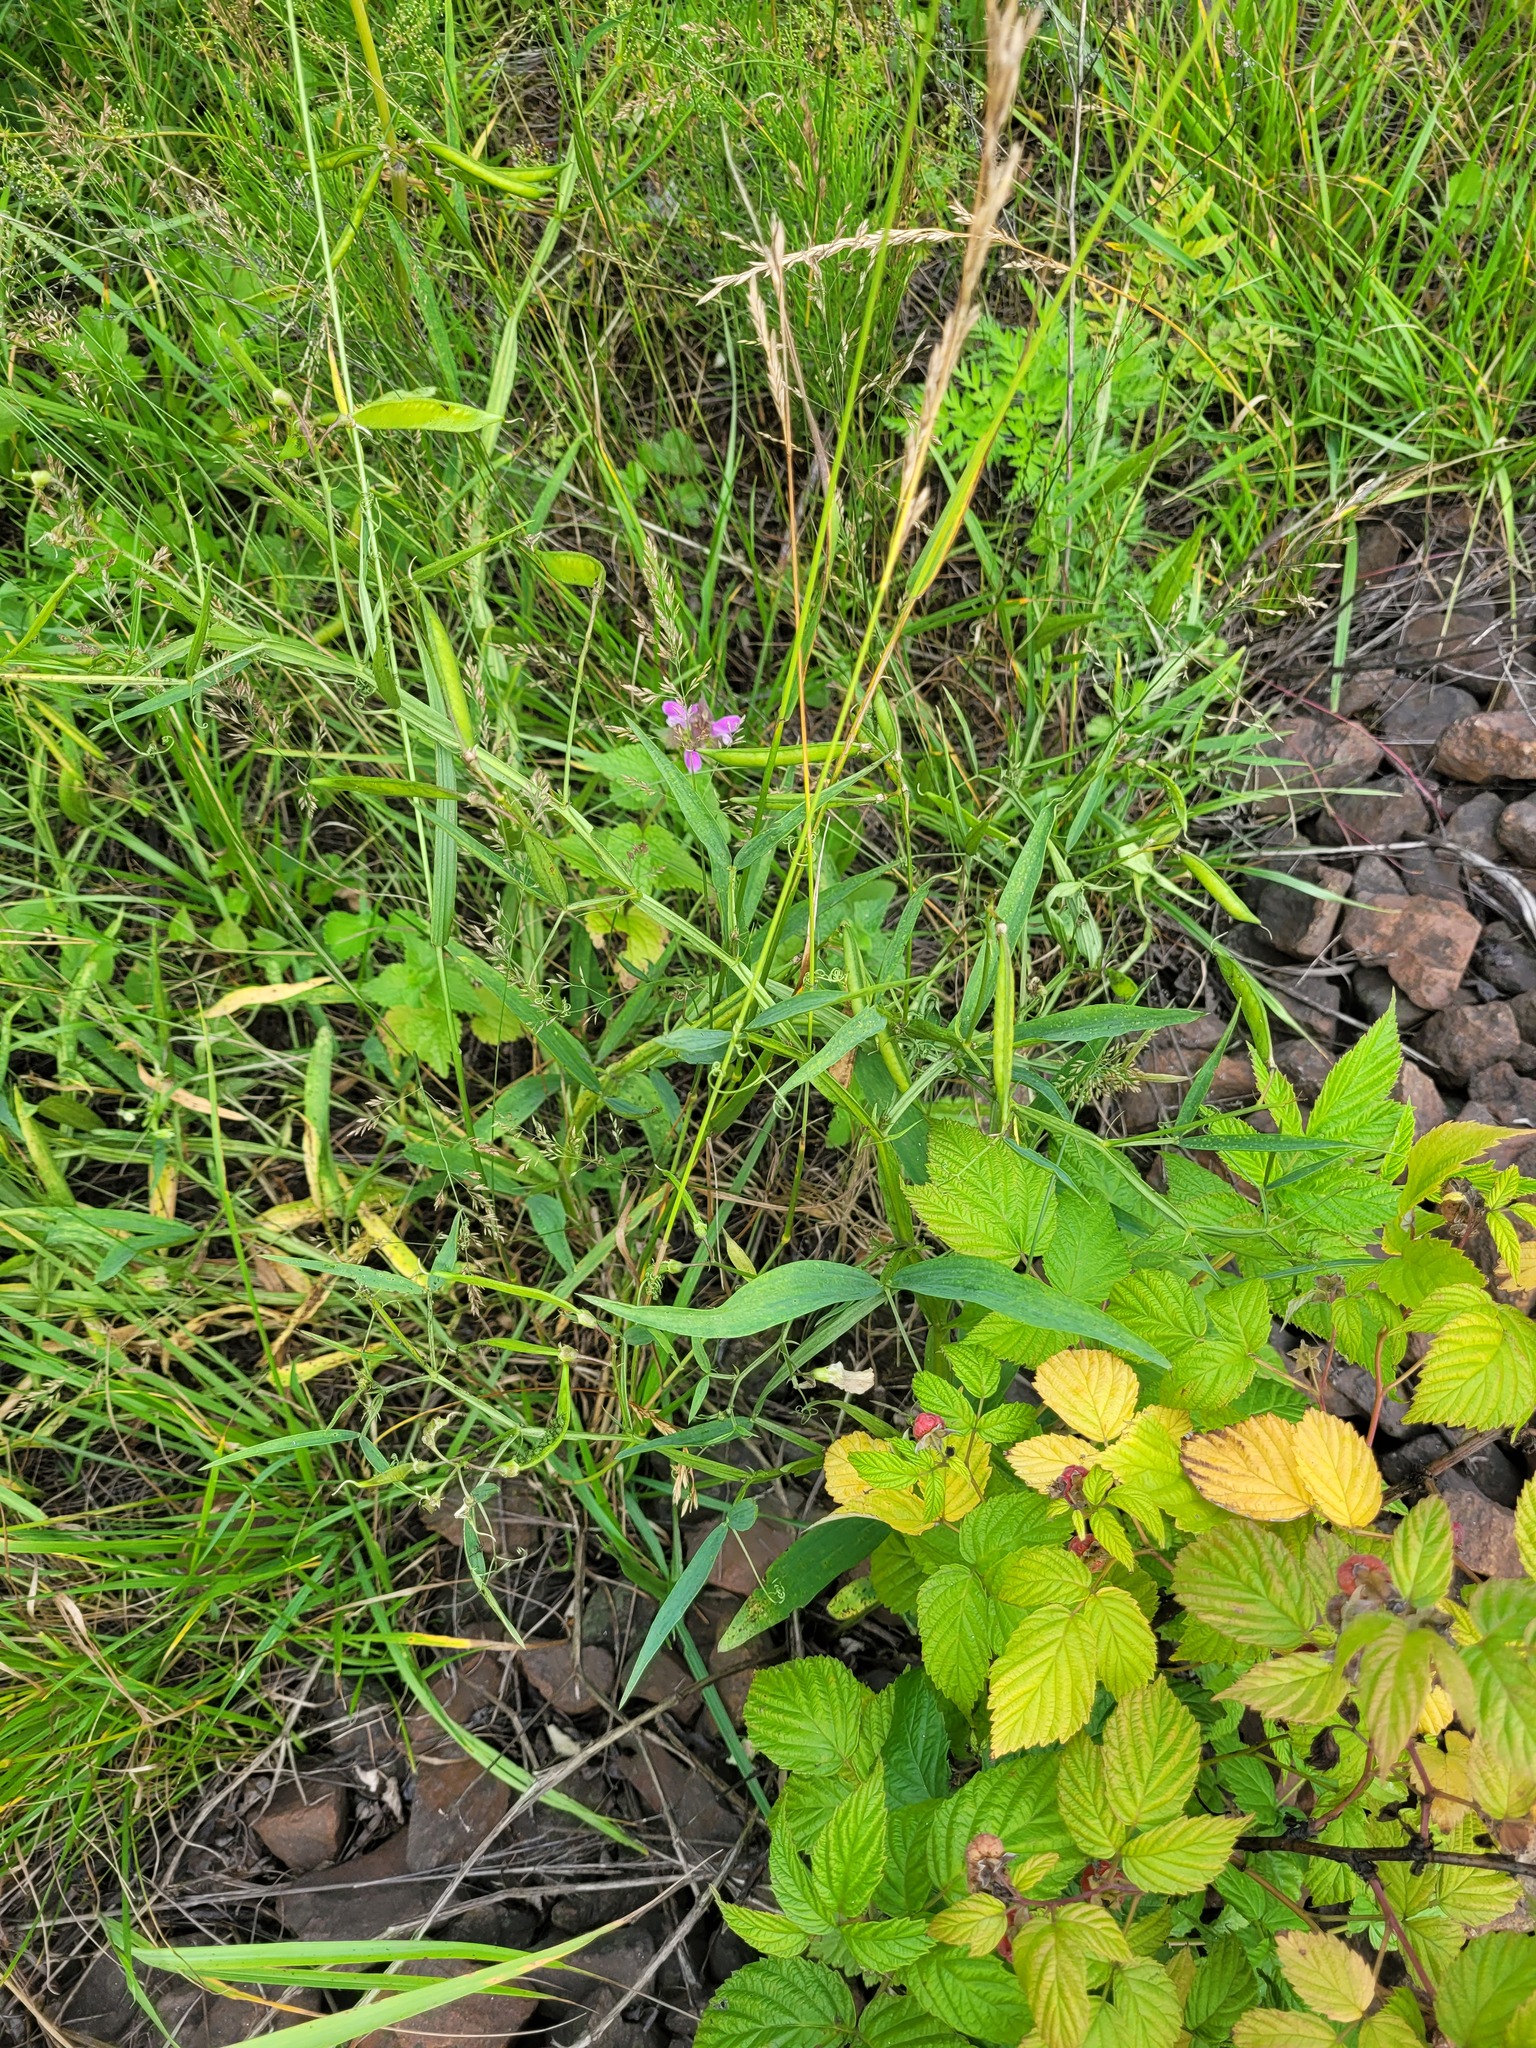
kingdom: Plantae
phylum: Tracheophyta
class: Magnoliopsida
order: Fabales
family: Fabaceae
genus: Lathyrus
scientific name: Lathyrus sylvestris
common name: Flat pea
